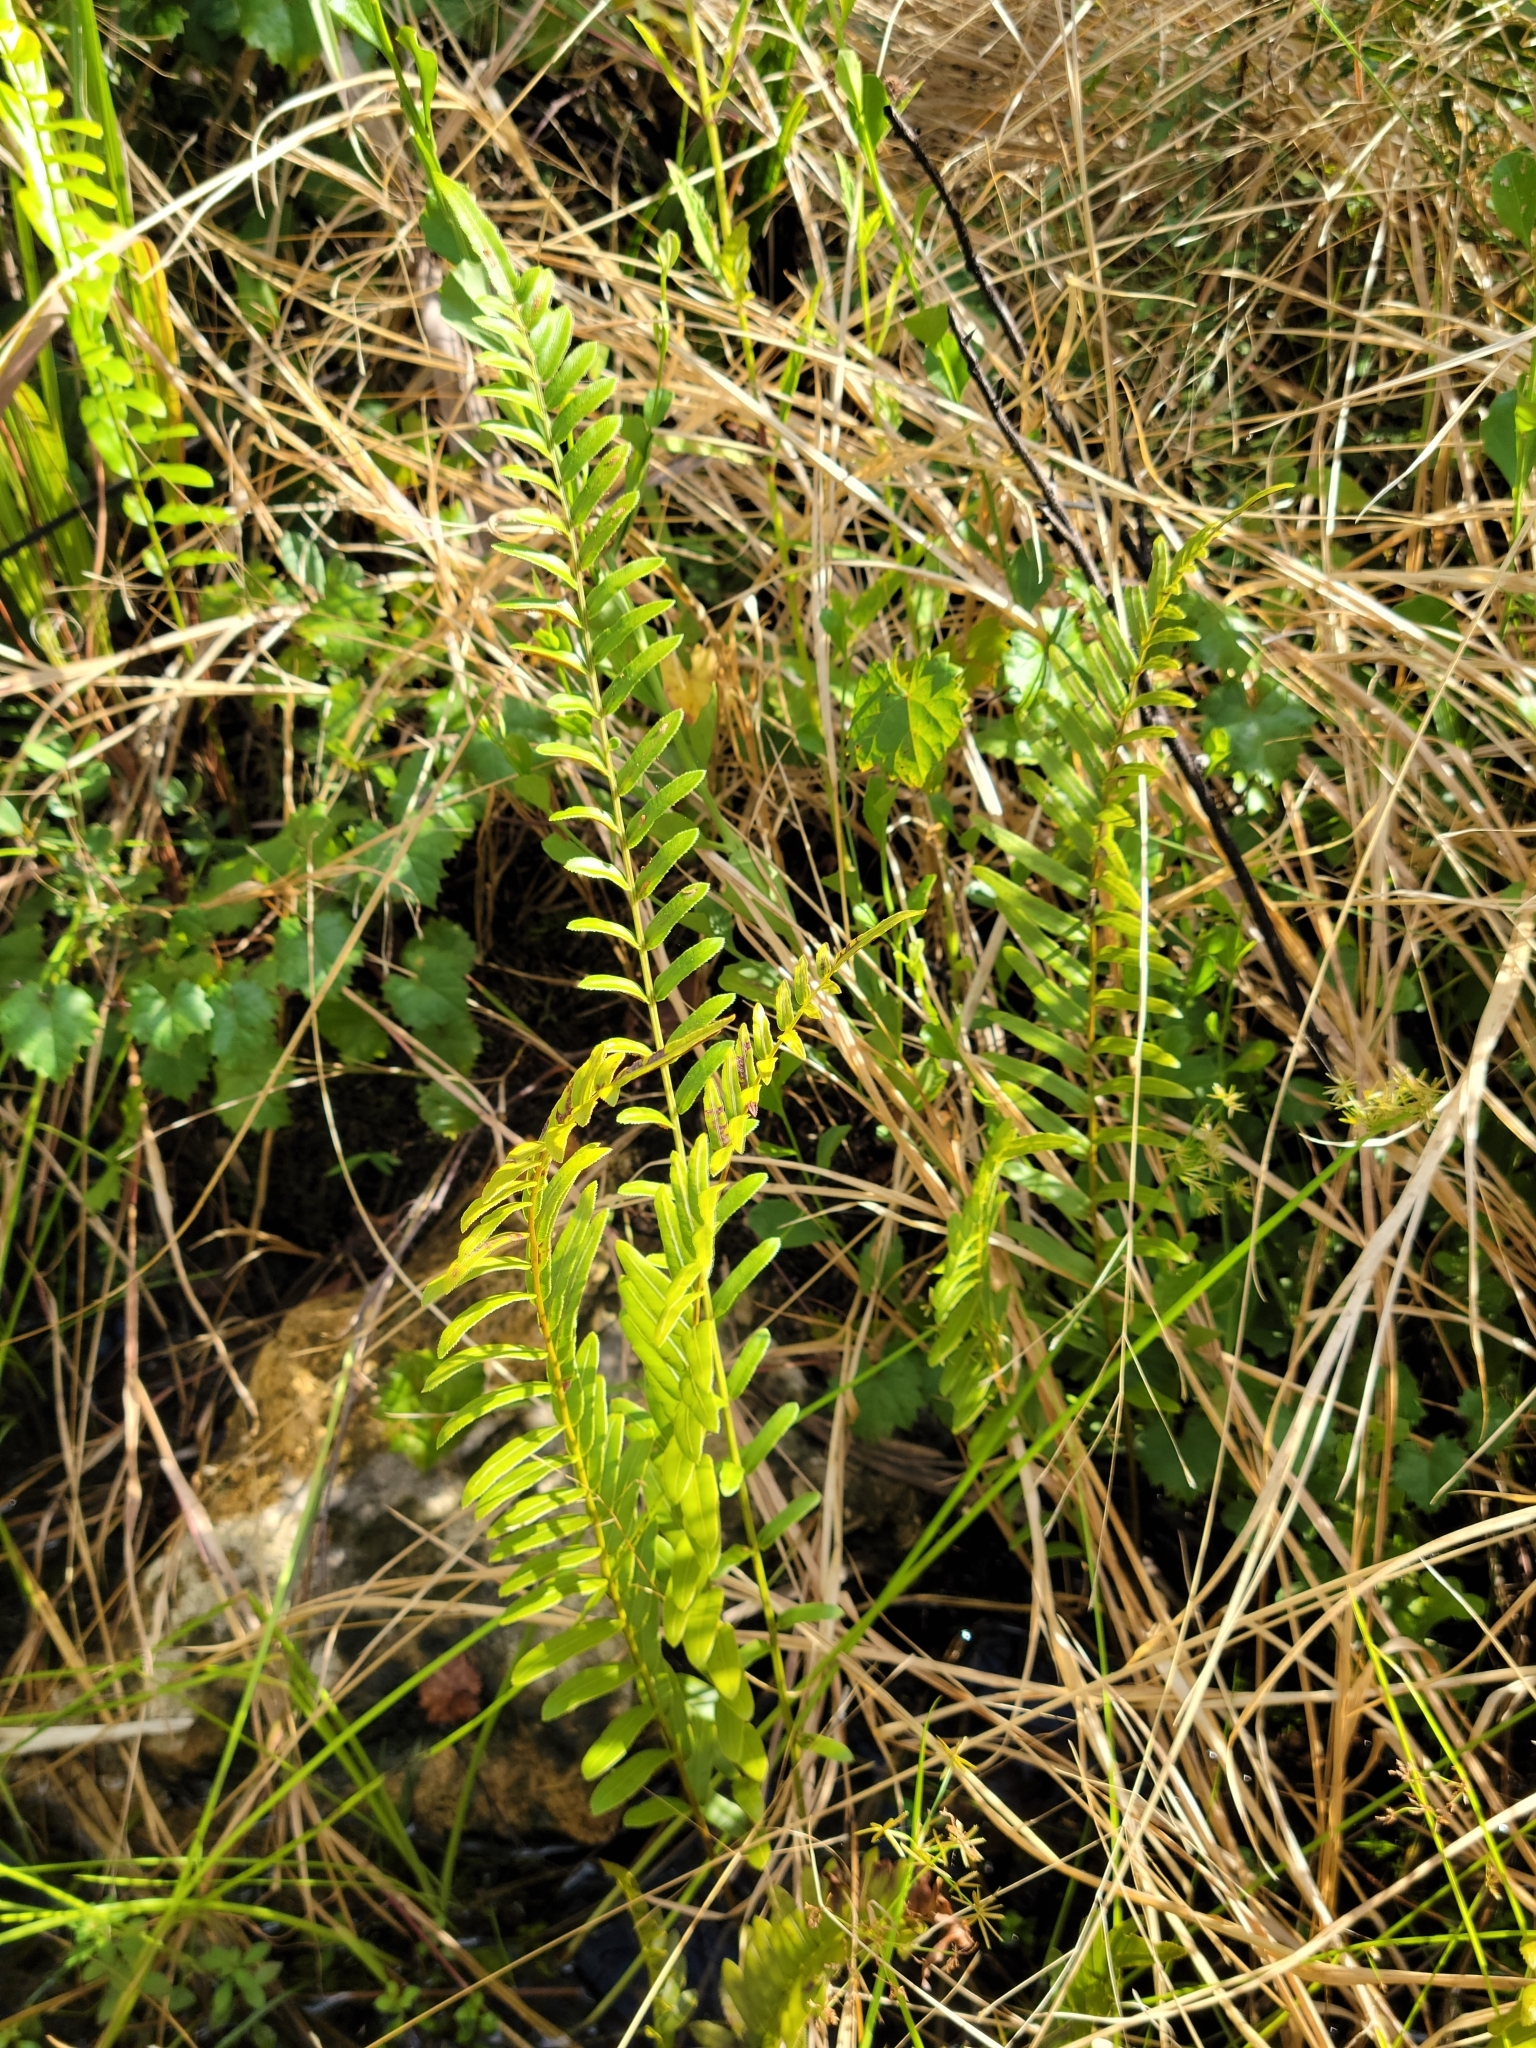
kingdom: Plantae
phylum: Tracheophyta
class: Polypodiopsida
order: Polypodiales
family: Blechnaceae
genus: Telmatoblechnum
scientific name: Telmatoblechnum serrulatum
